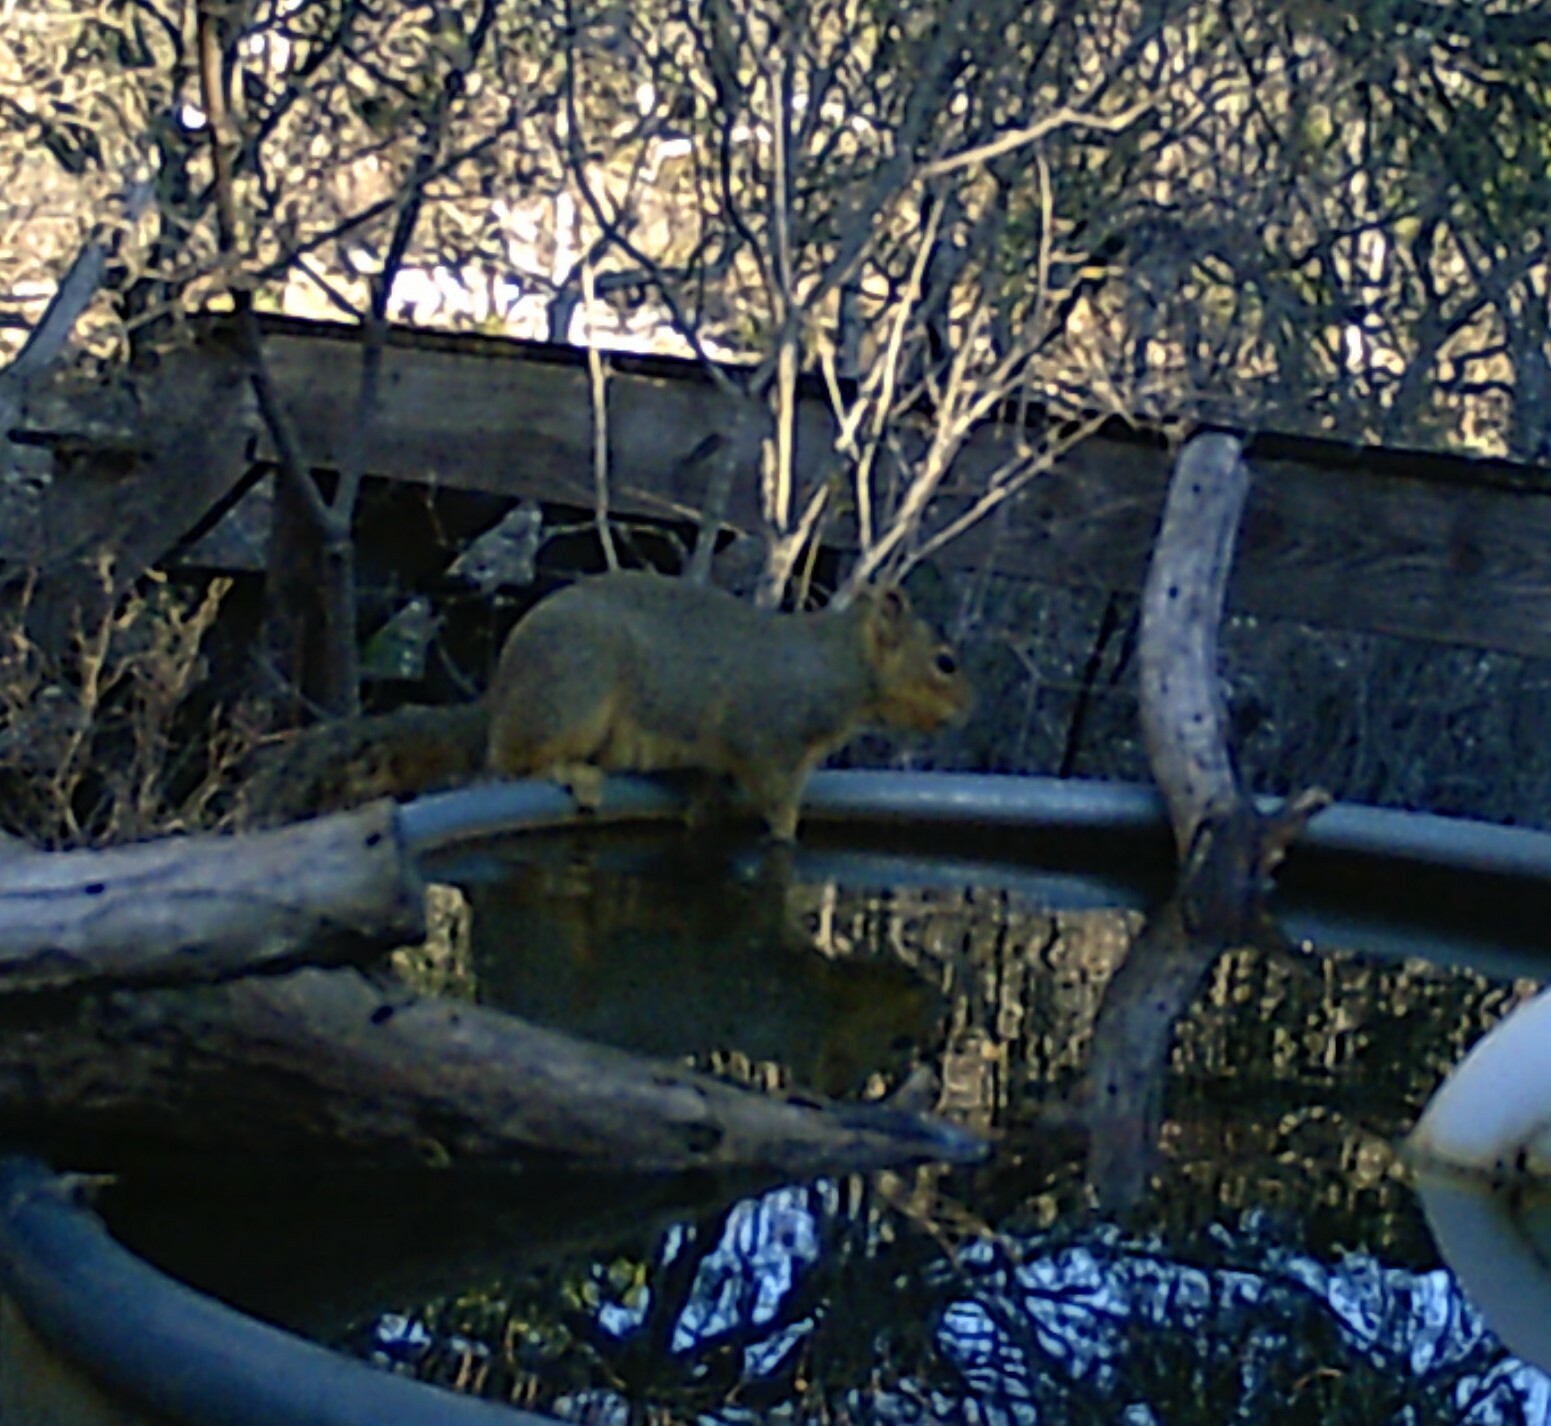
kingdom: Animalia
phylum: Chordata
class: Mammalia
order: Rodentia
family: Sciuridae
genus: Sciurus
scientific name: Sciurus niger
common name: Fox squirrel
